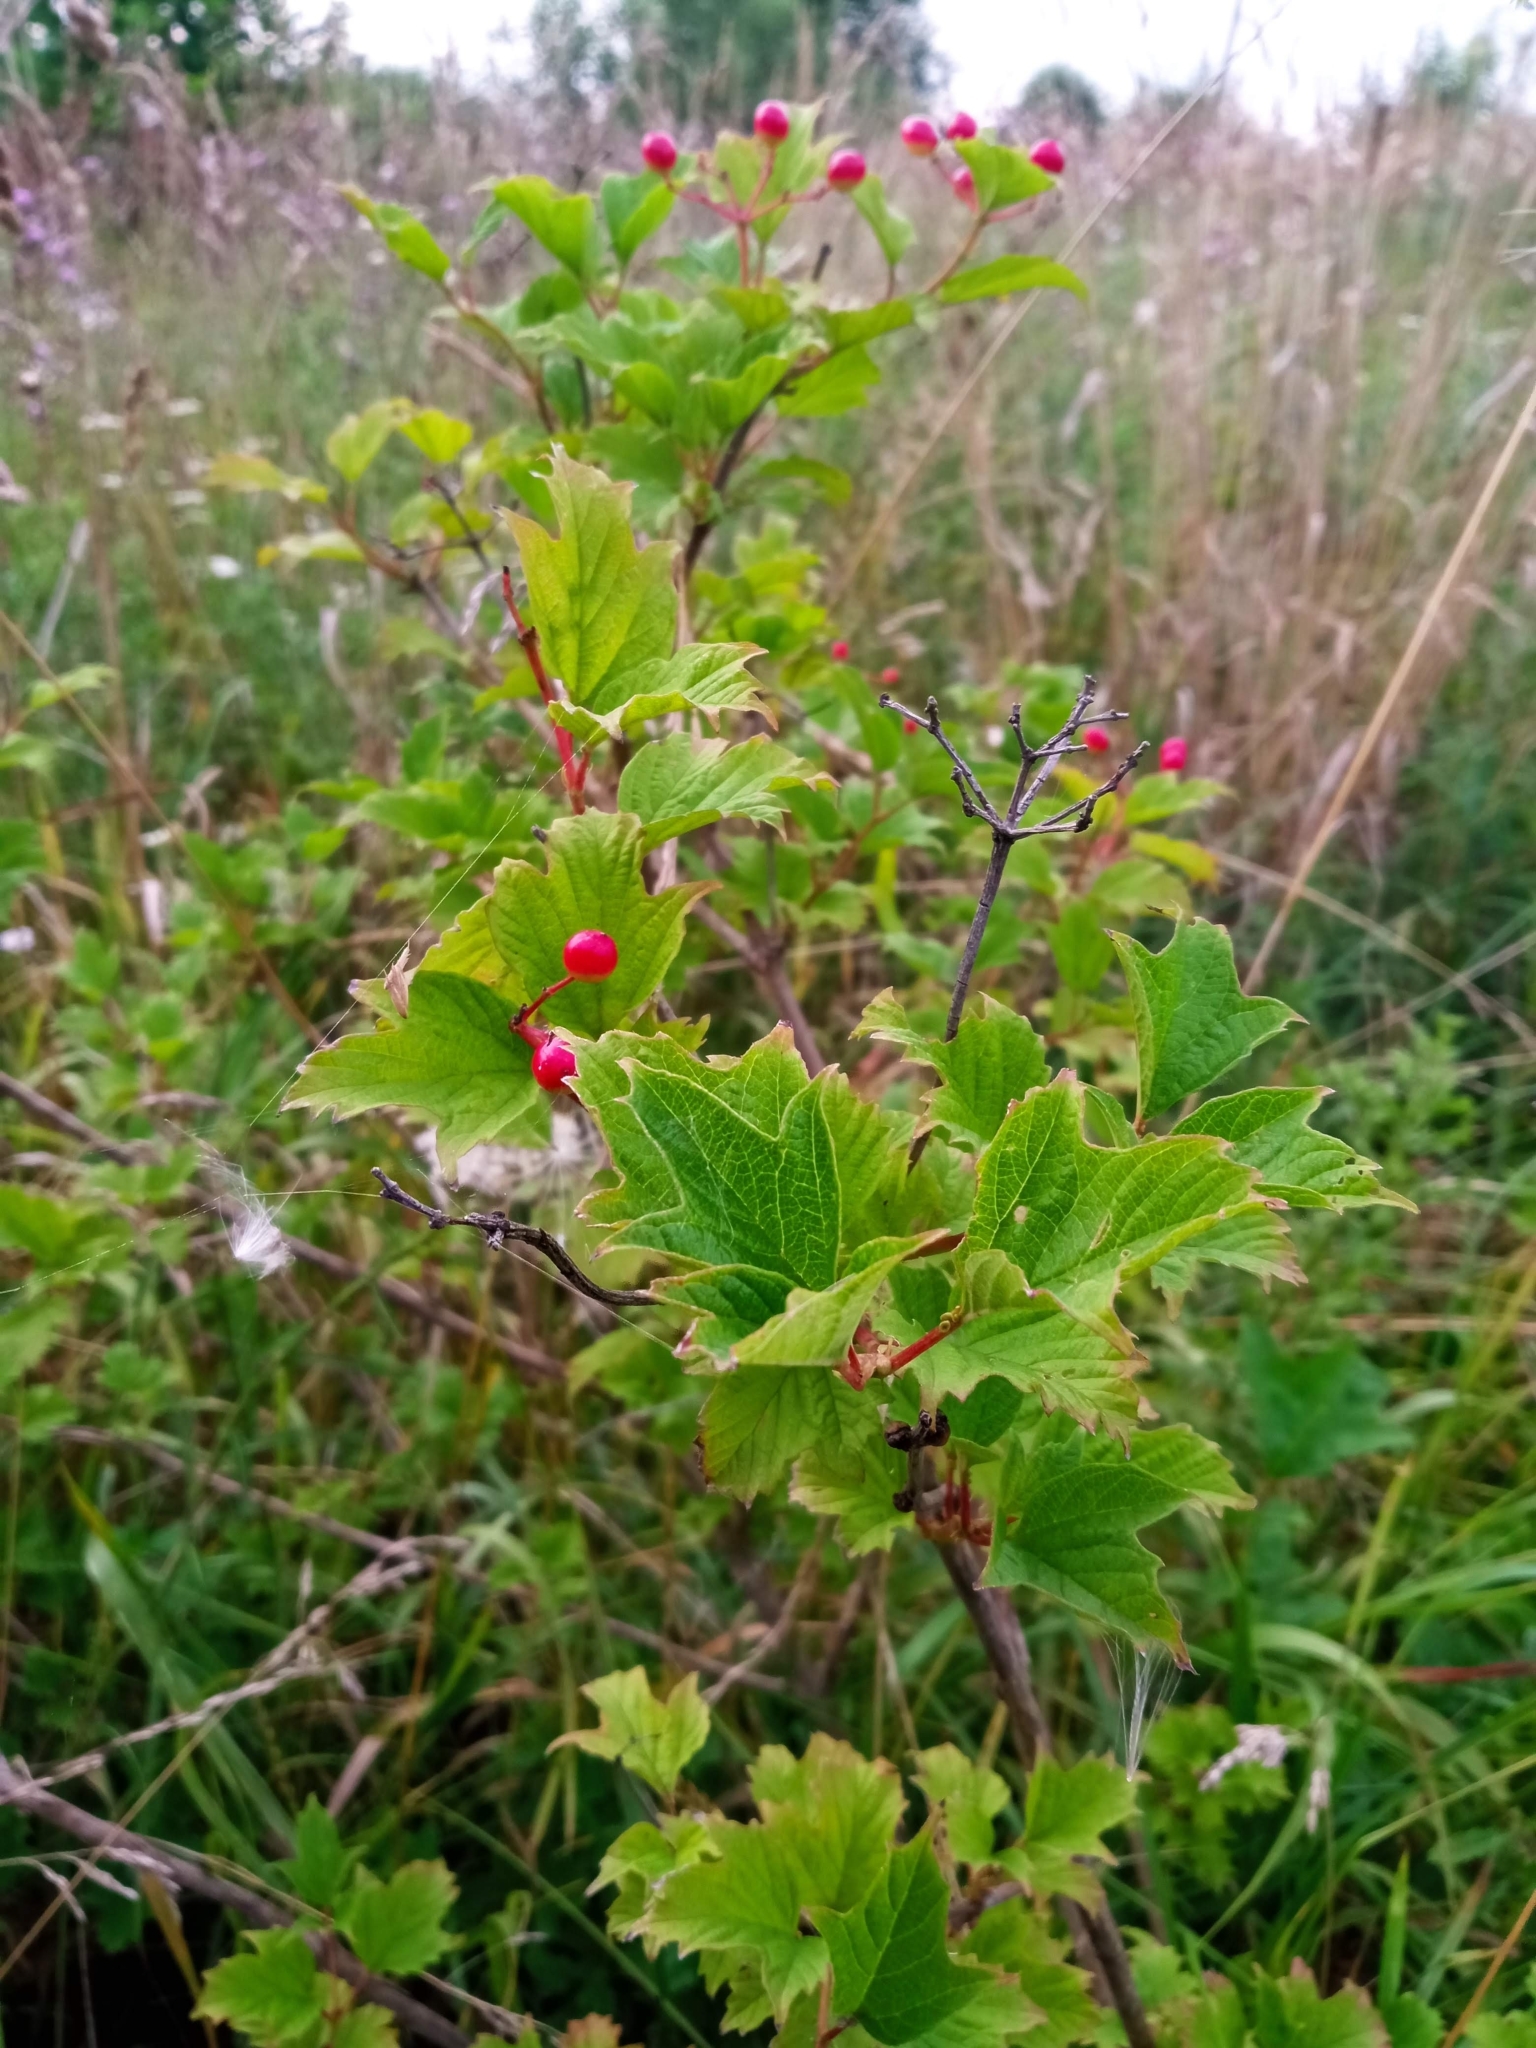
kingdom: Plantae
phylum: Tracheophyta
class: Magnoliopsida
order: Dipsacales
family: Viburnaceae
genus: Viburnum
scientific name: Viburnum opulus
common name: Guelder-rose
